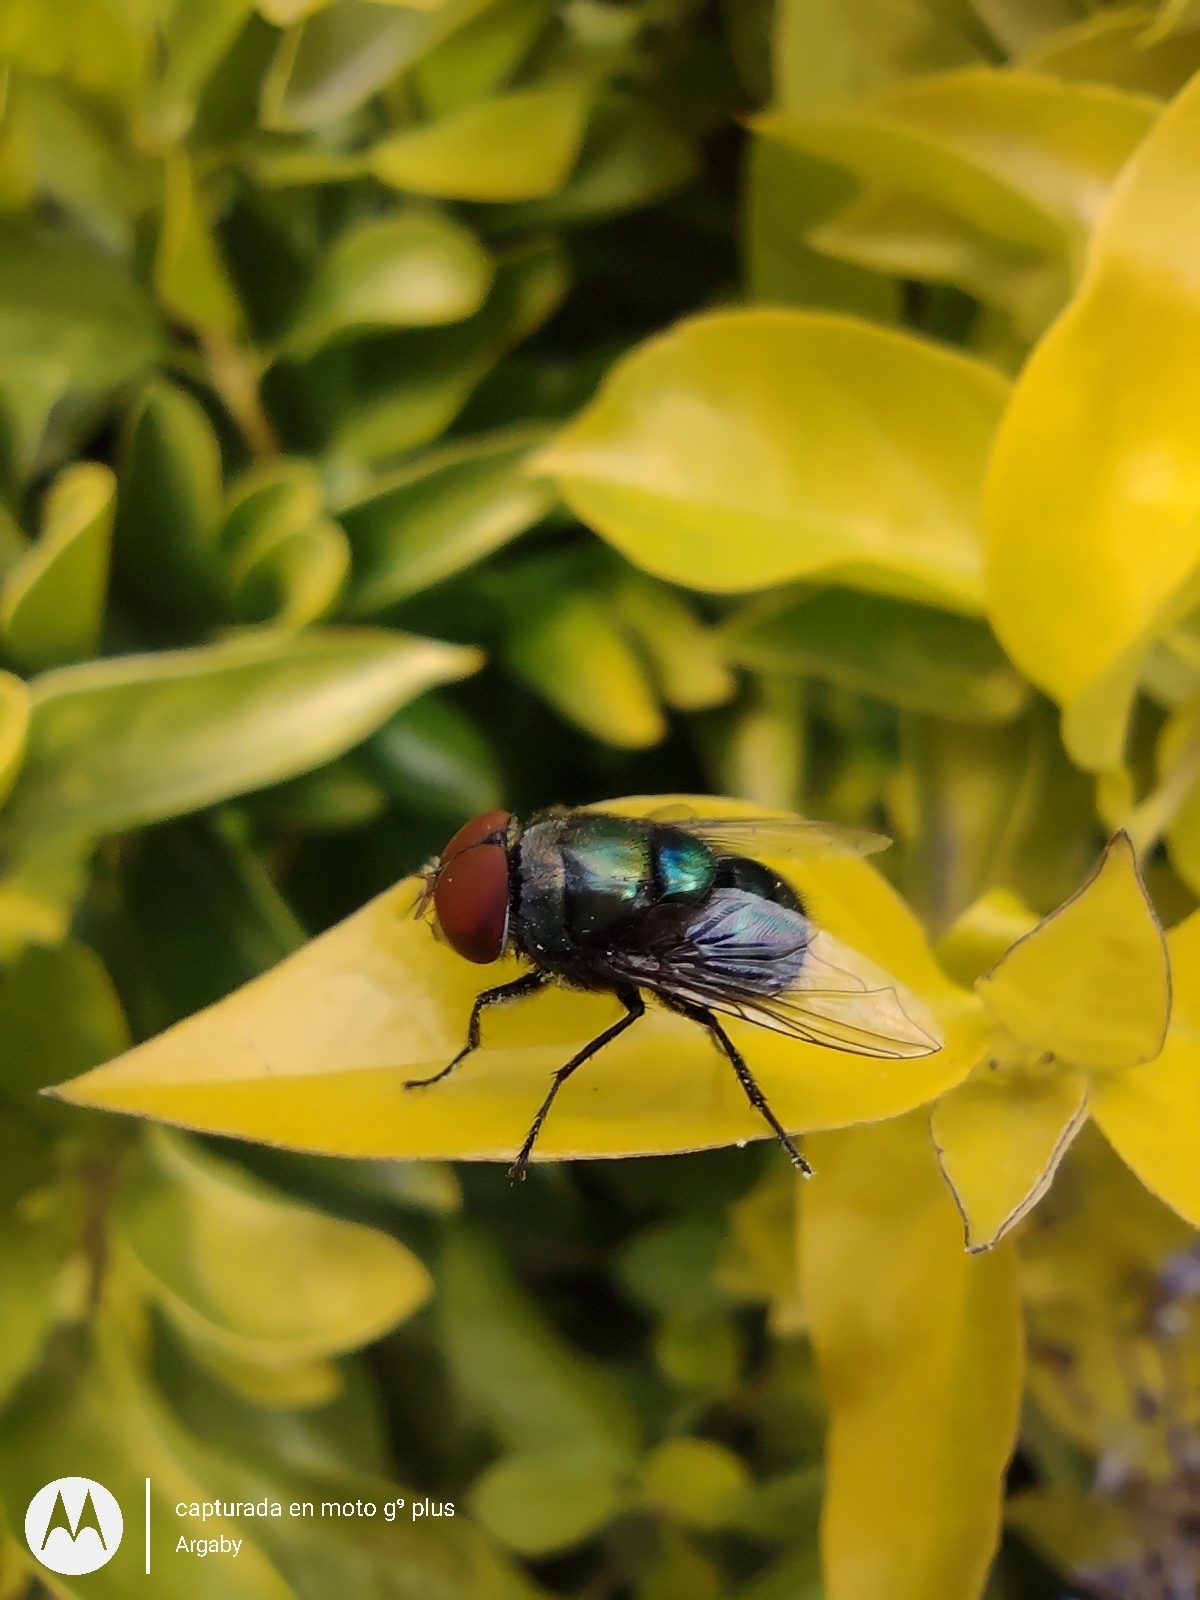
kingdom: Animalia
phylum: Arthropoda
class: Insecta
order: Diptera
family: Calliphoridae
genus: Chrysomya
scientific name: Chrysomya megacephala
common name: Blow fly
